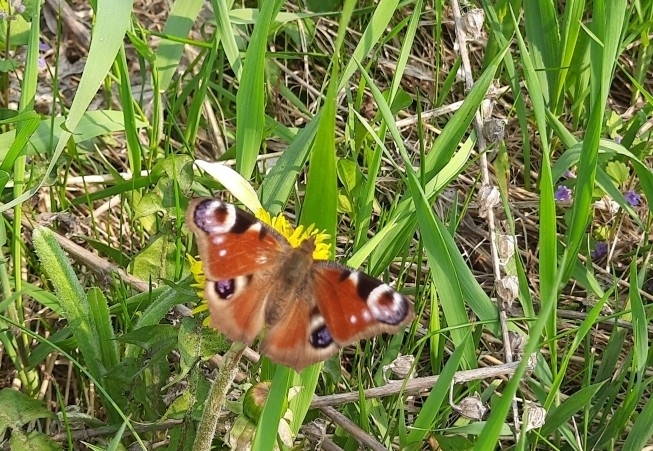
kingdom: Animalia
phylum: Arthropoda
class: Insecta
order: Lepidoptera
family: Nymphalidae
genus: Aglais
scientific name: Aglais io
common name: Peacock
